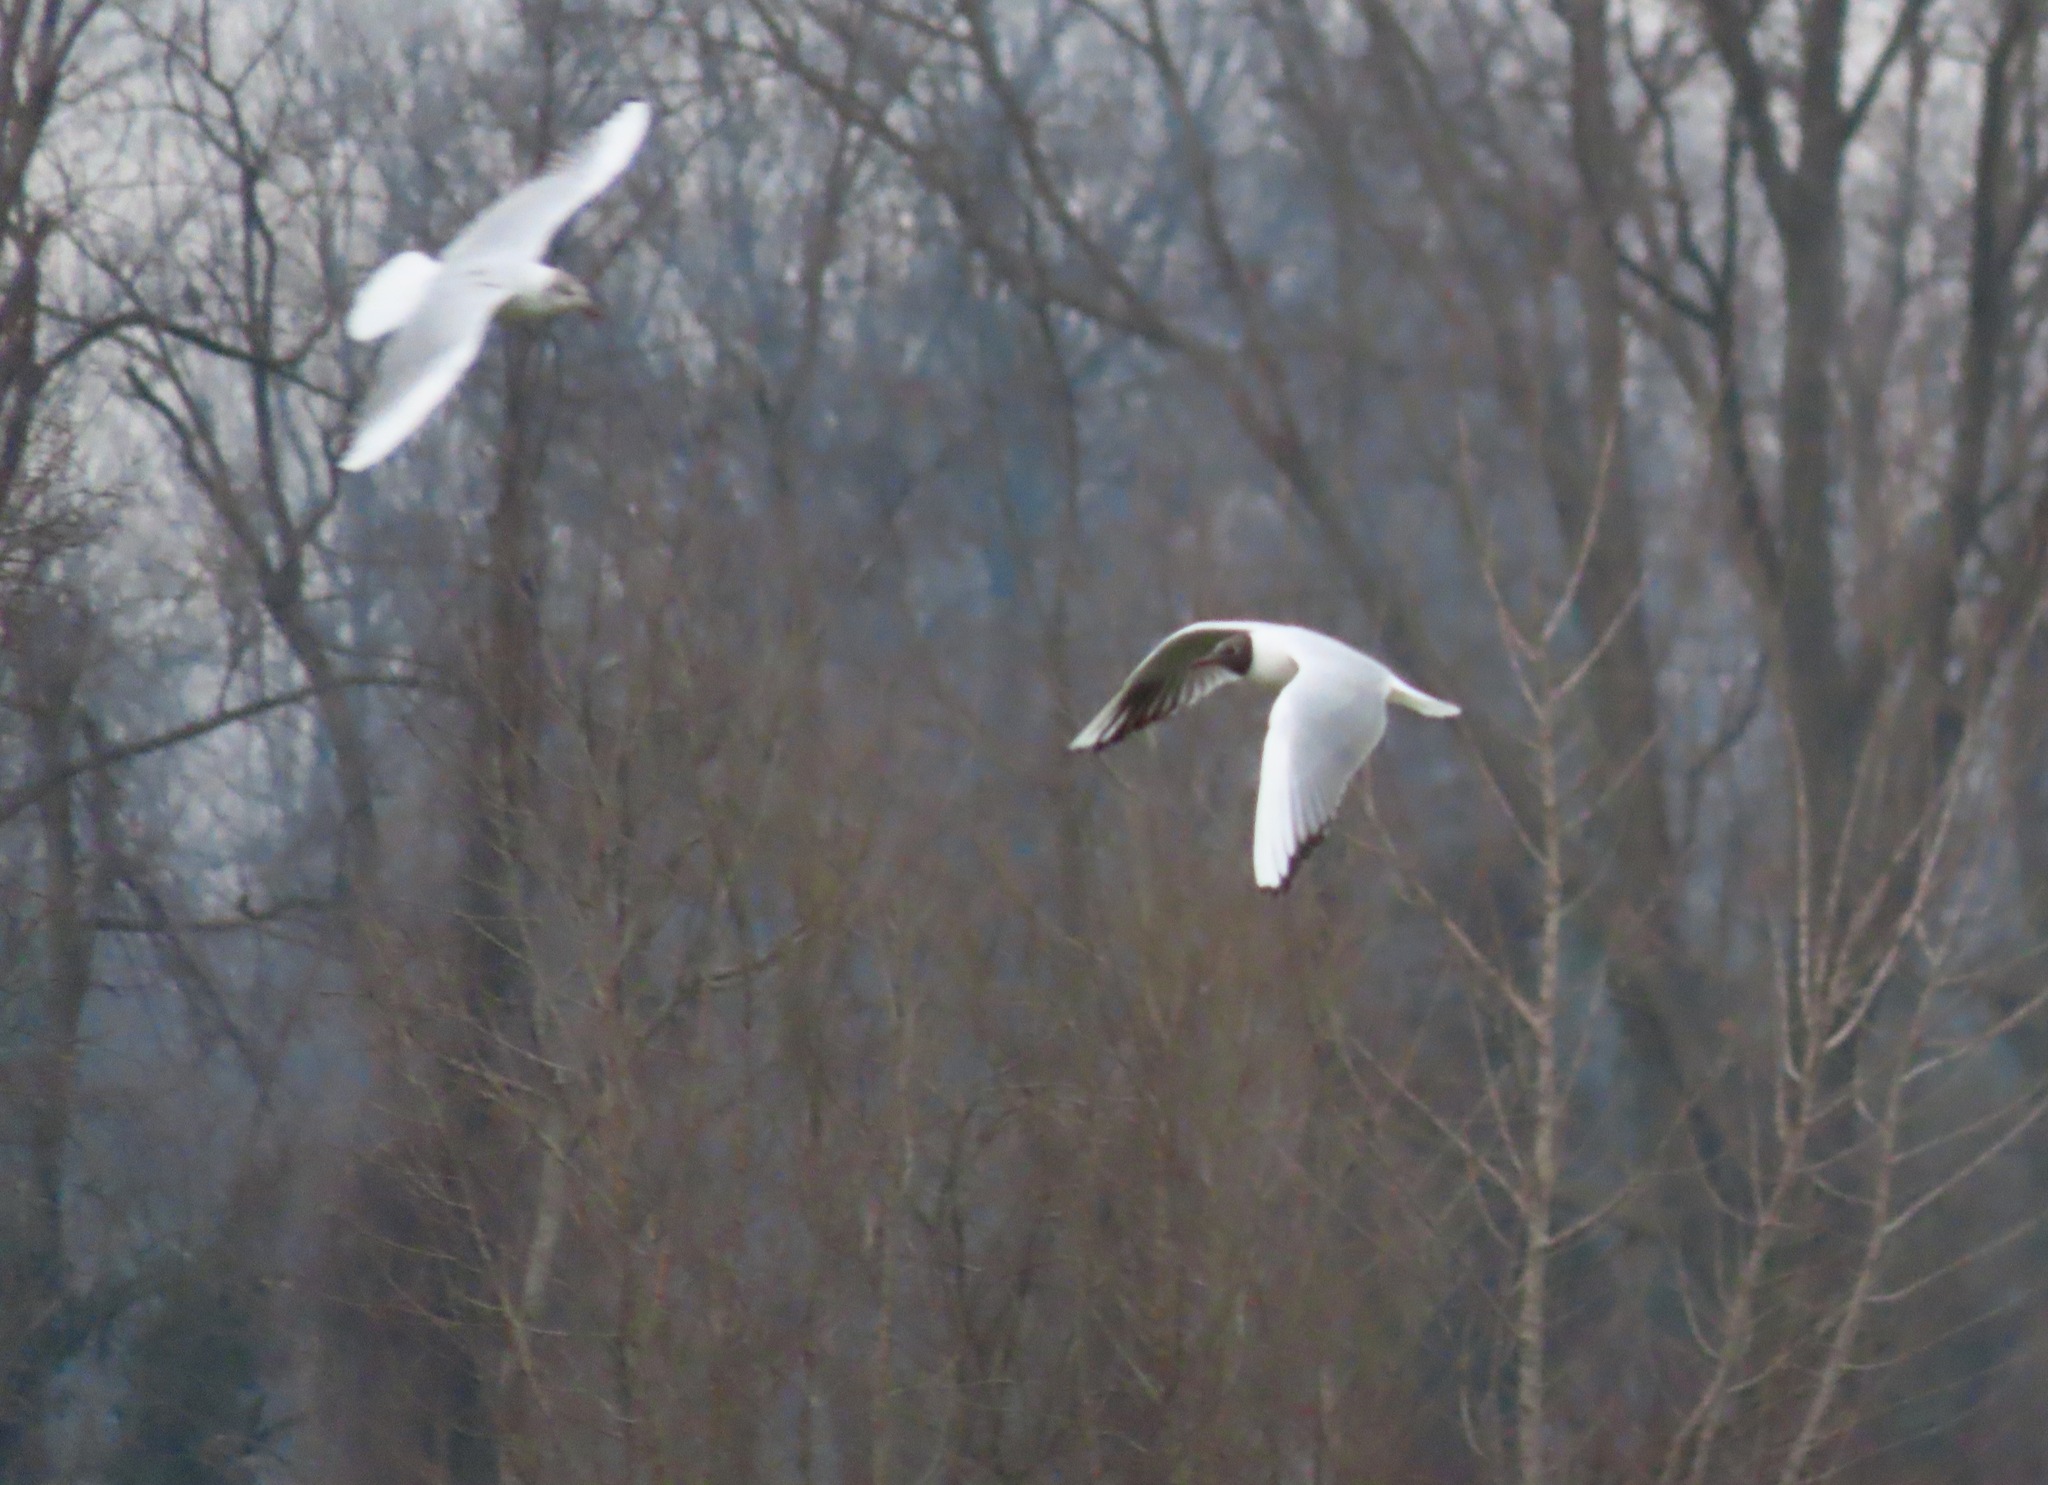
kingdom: Animalia
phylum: Chordata
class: Aves
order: Charadriiformes
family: Laridae
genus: Chroicocephalus
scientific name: Chroicocephalus ridibundus
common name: Black-headed gull
